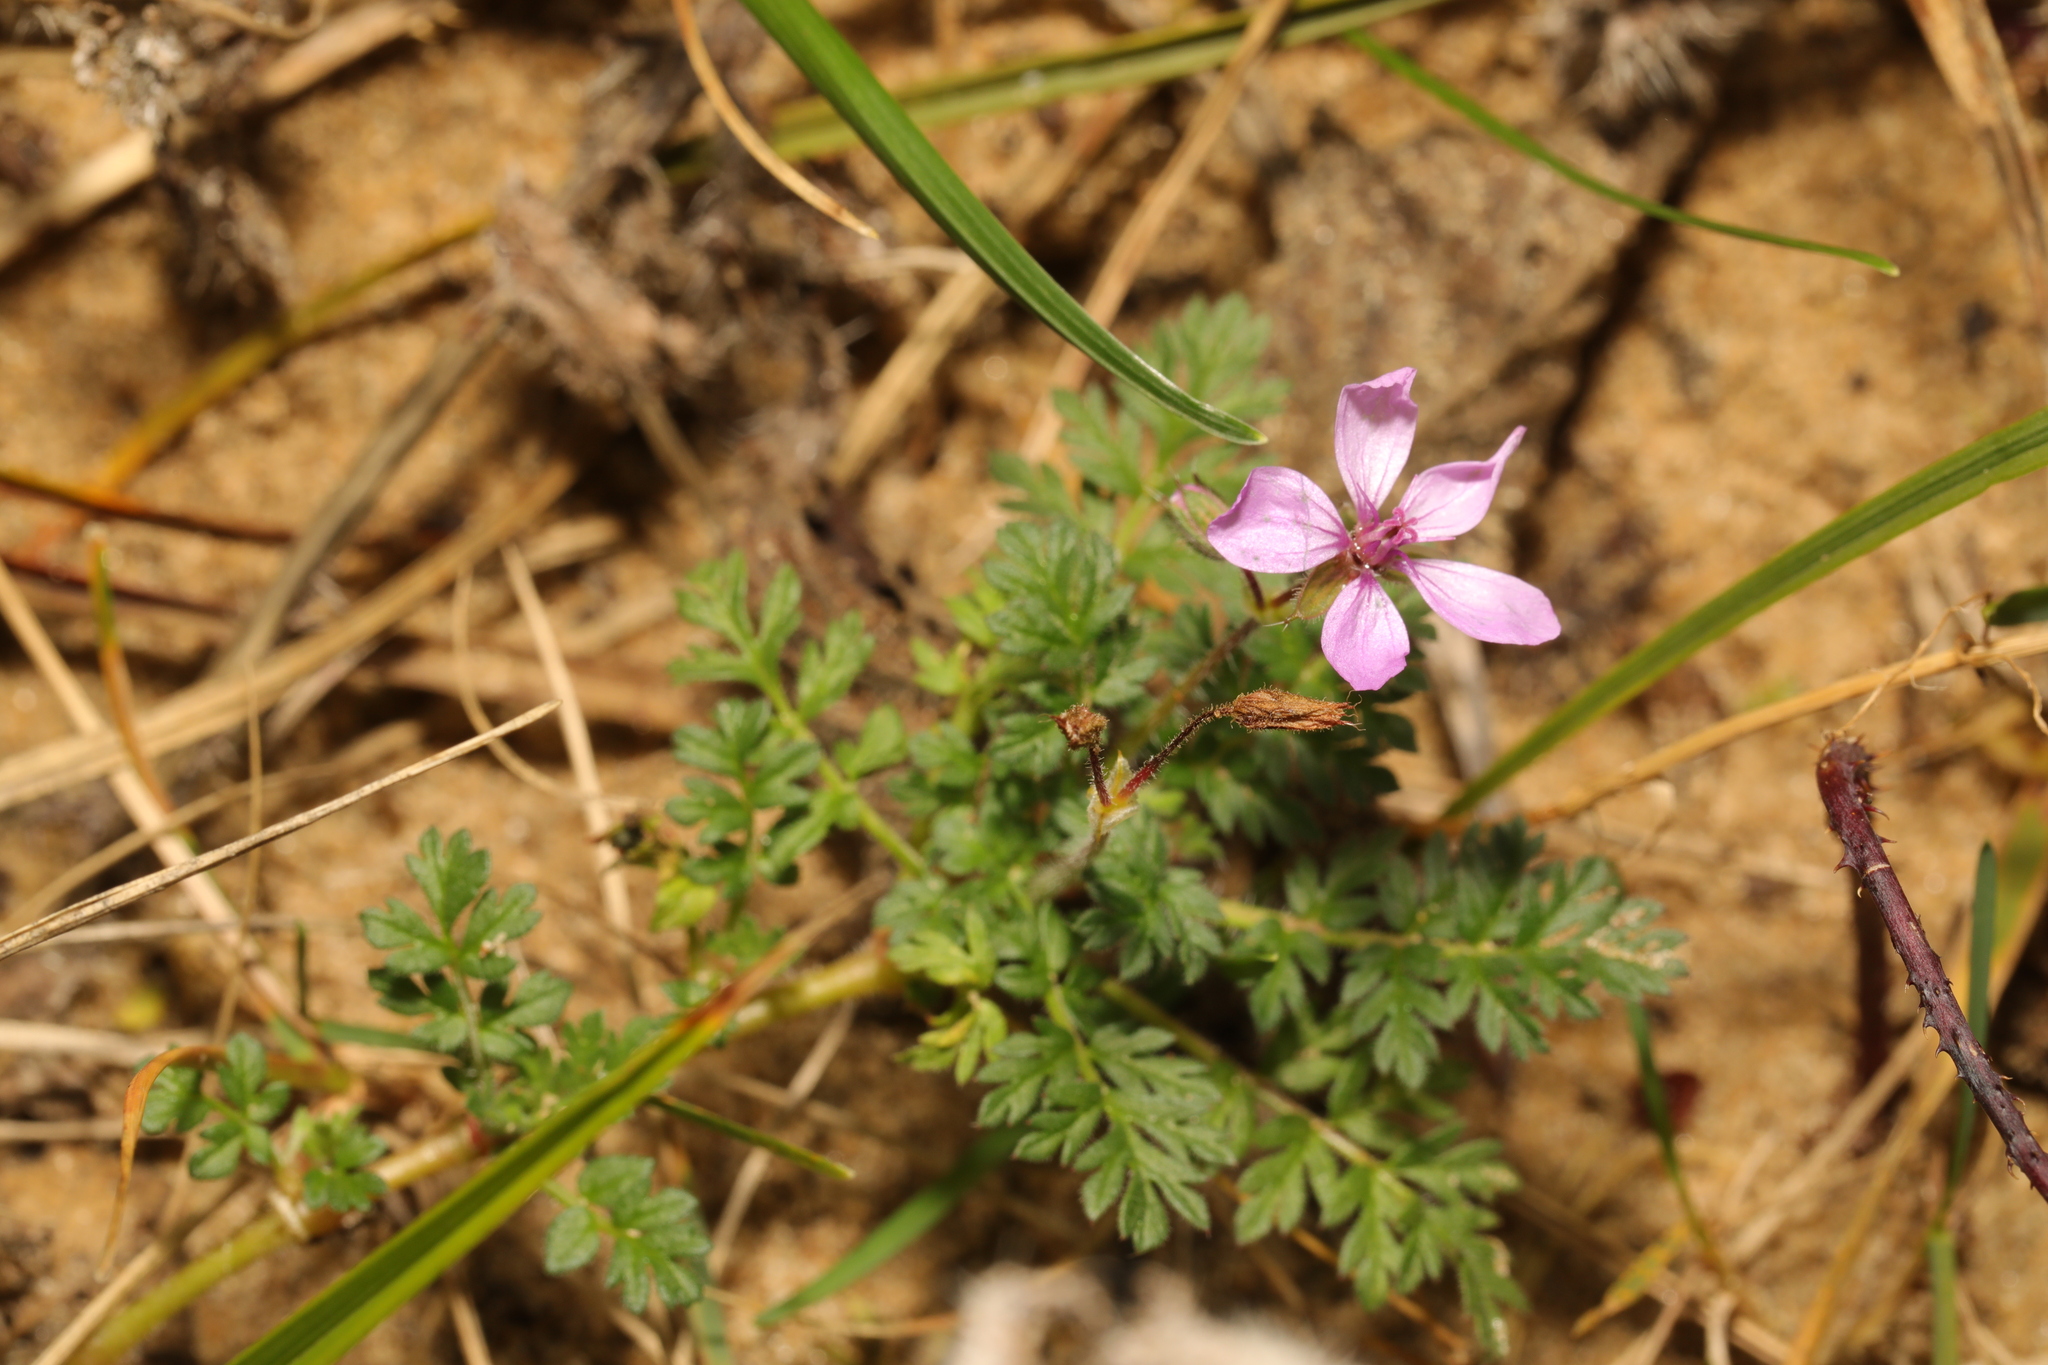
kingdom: Plantae
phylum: Tracheophyta
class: Magnoliopsida
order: Geraniales
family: Geraniaceae
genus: Erodium
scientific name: Erodium cicutarium
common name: Common stork's-bill
